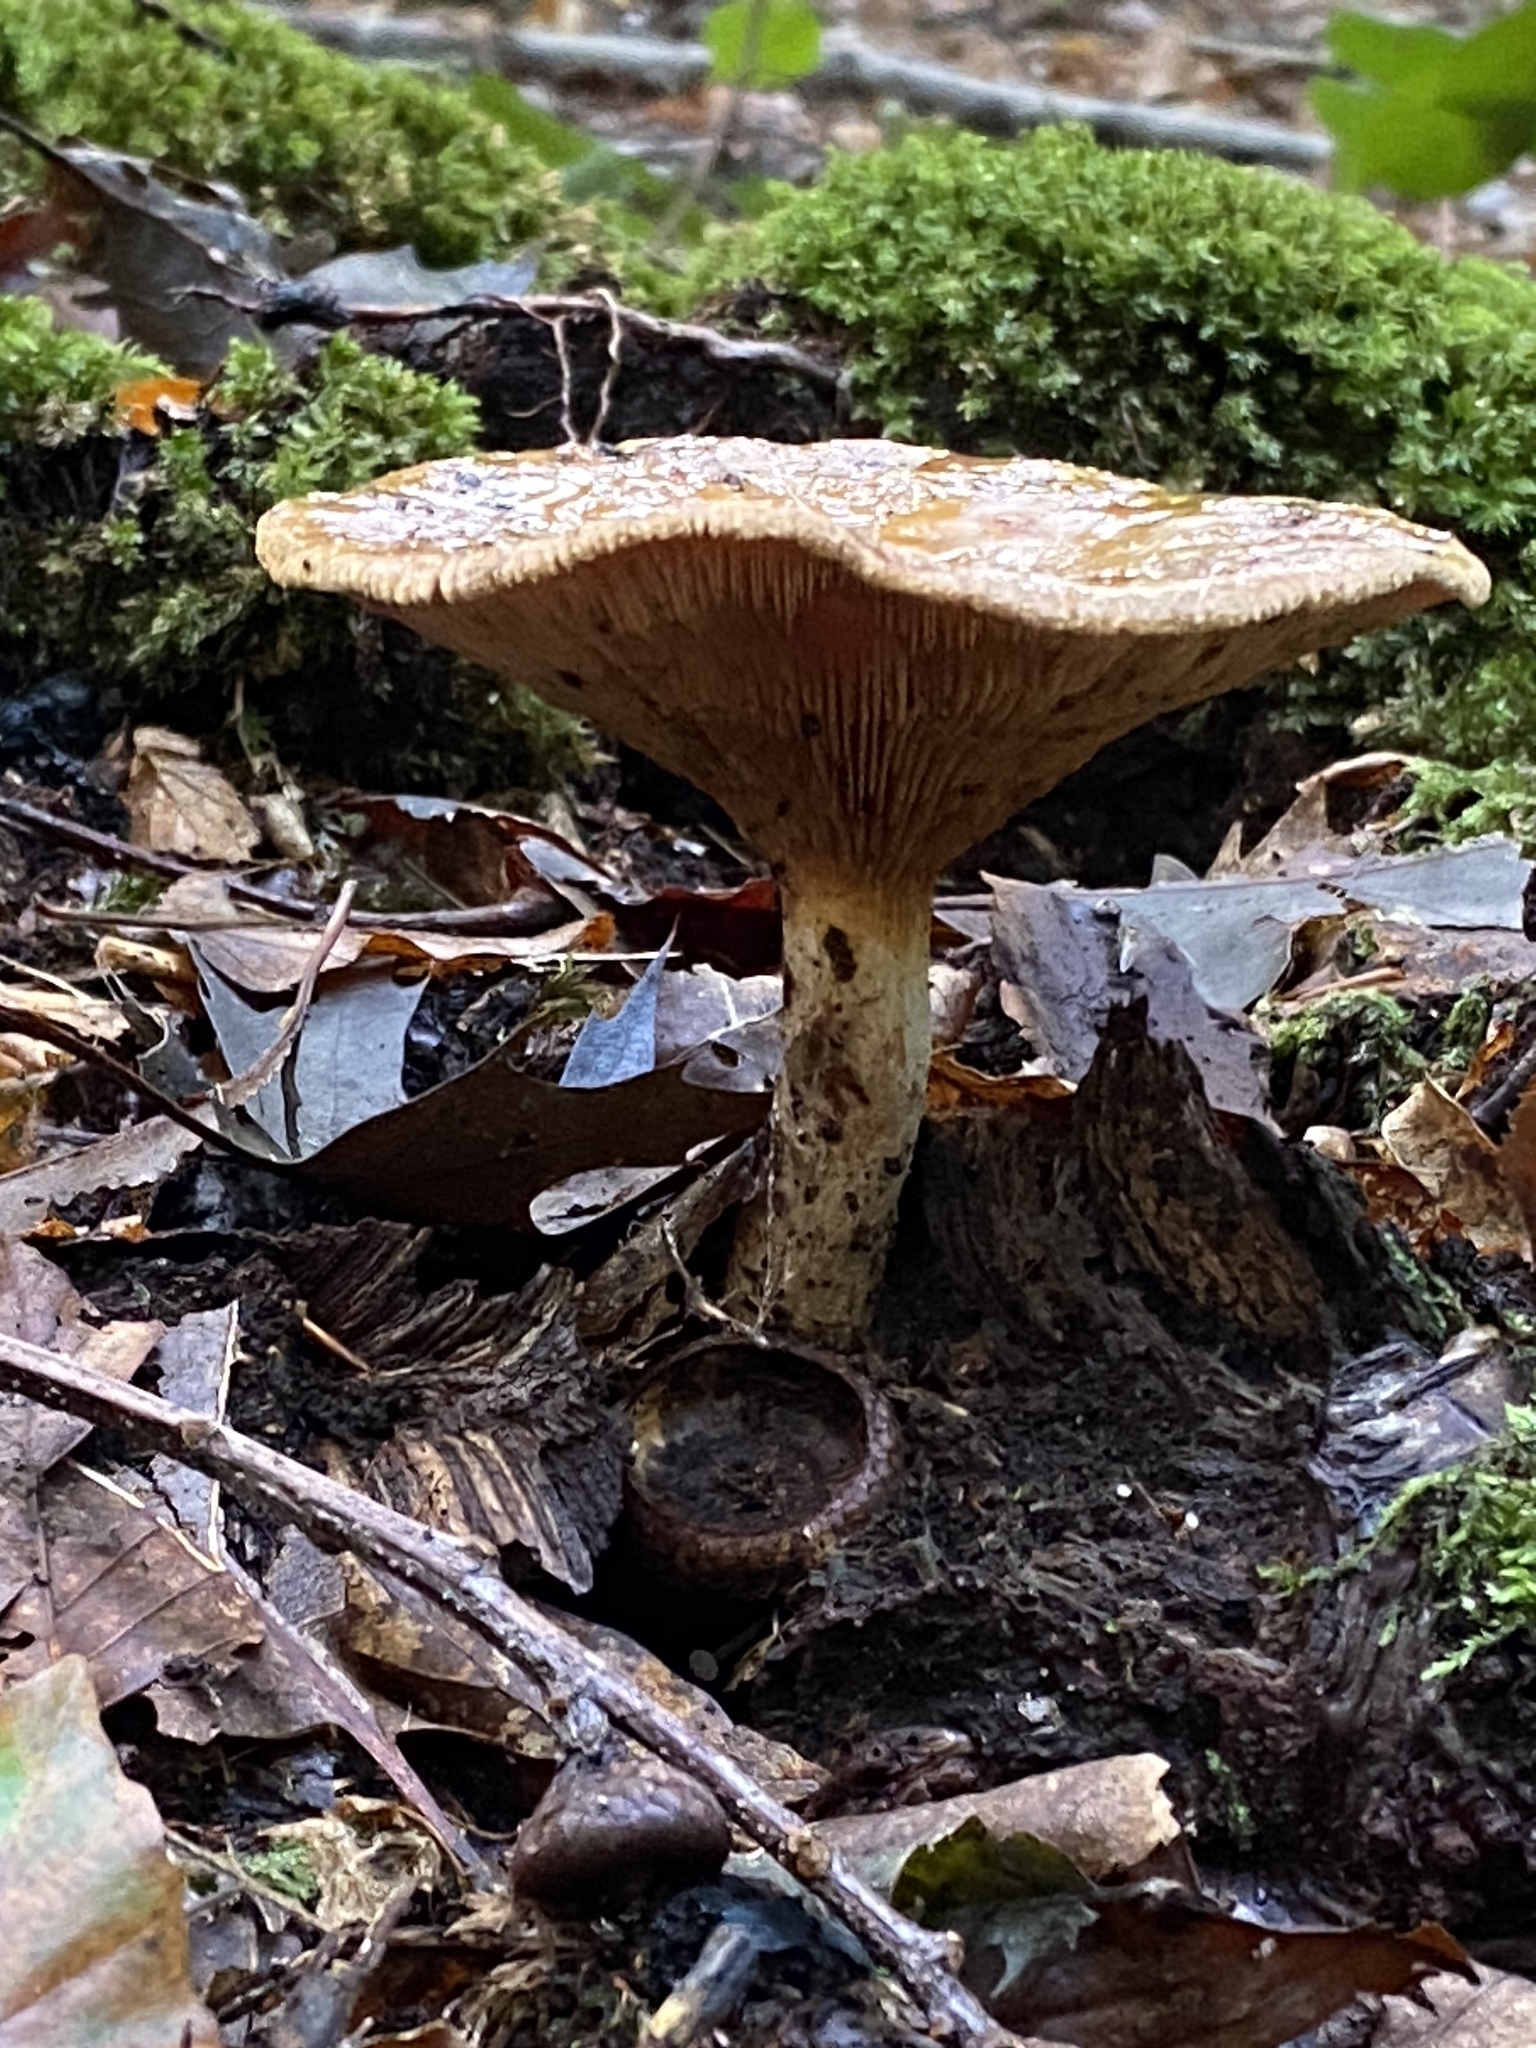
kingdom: Fungi
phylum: Basidiomycota
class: Agaricomycetes
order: Boletales
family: Paxillaceae
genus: Paxillus
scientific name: Paxillus involutus
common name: Brown roll rim
